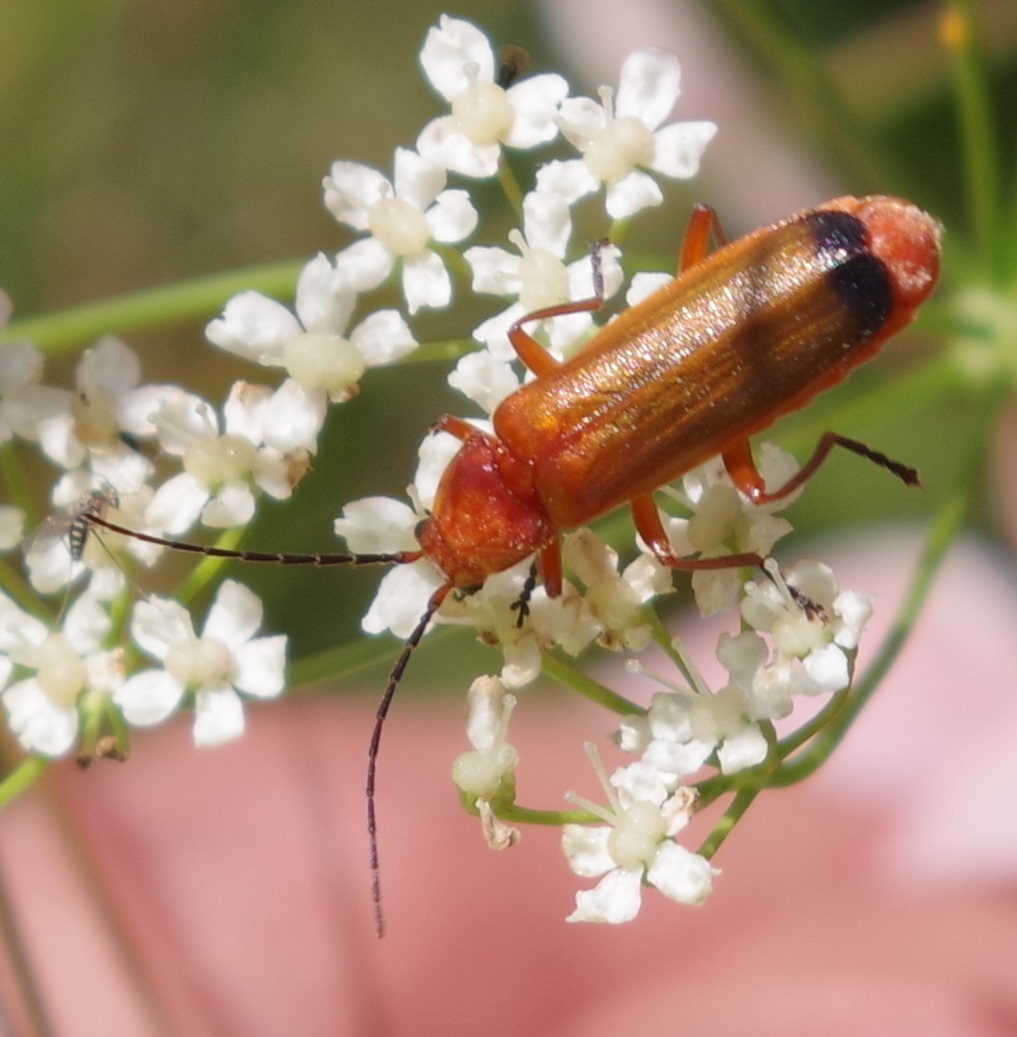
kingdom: Animalia
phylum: Arthropoda
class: Insecta
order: Coleoptera
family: Cantharidae
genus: Rhagonycha
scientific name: Rhagonycha fulva
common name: Common red soldier beetle
